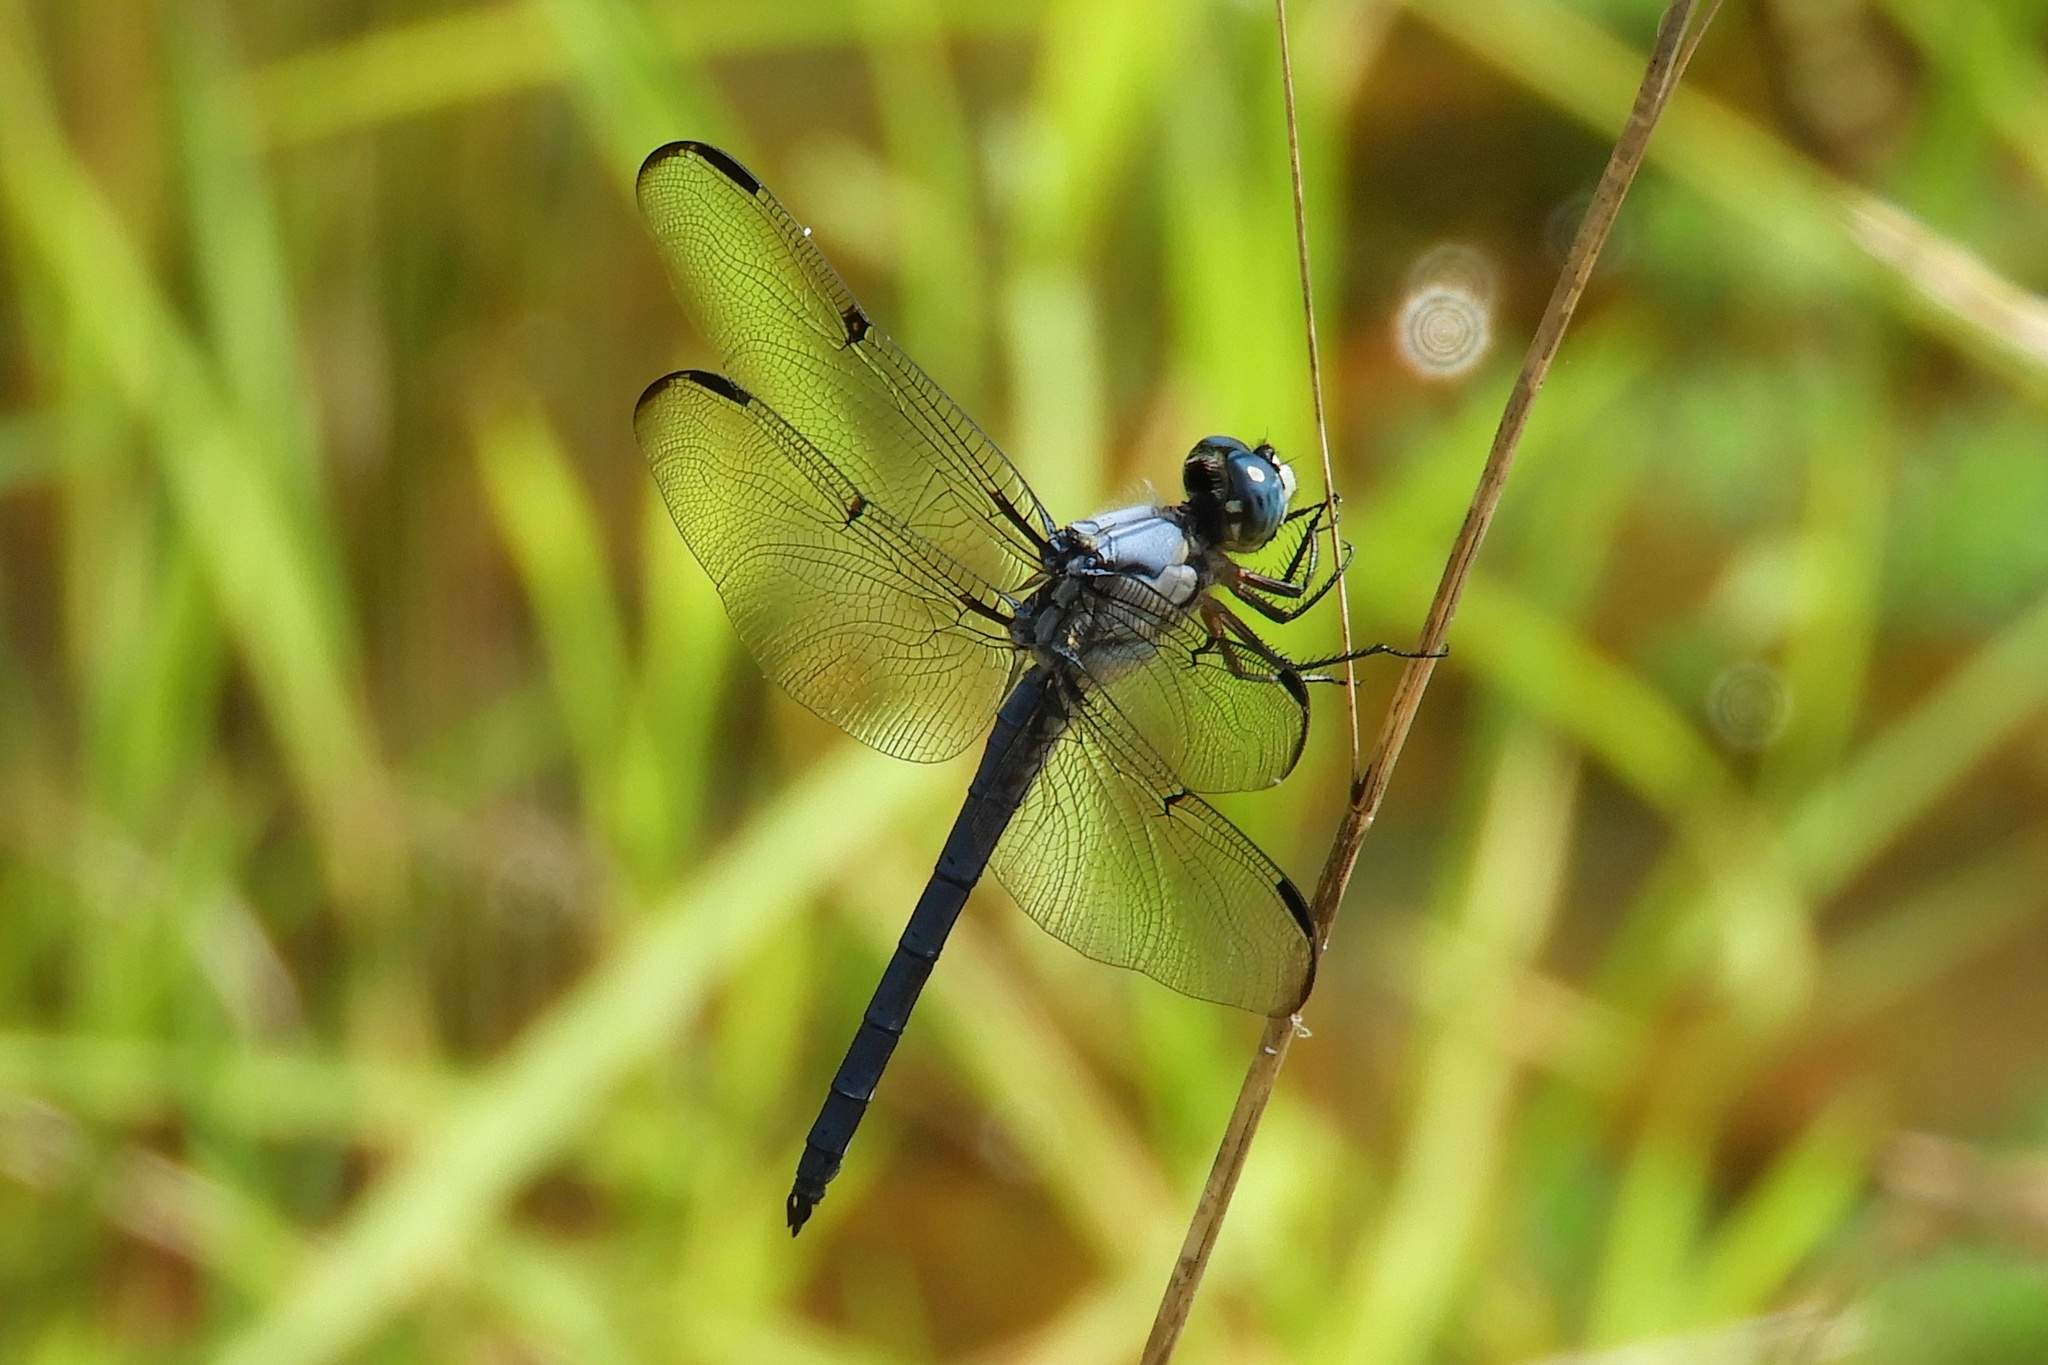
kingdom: Animalia
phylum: Arthropoda
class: Insecta
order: Odonata
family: Libellulidae
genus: Libellula
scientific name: Libellula vibrans
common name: Great blue skimmer
